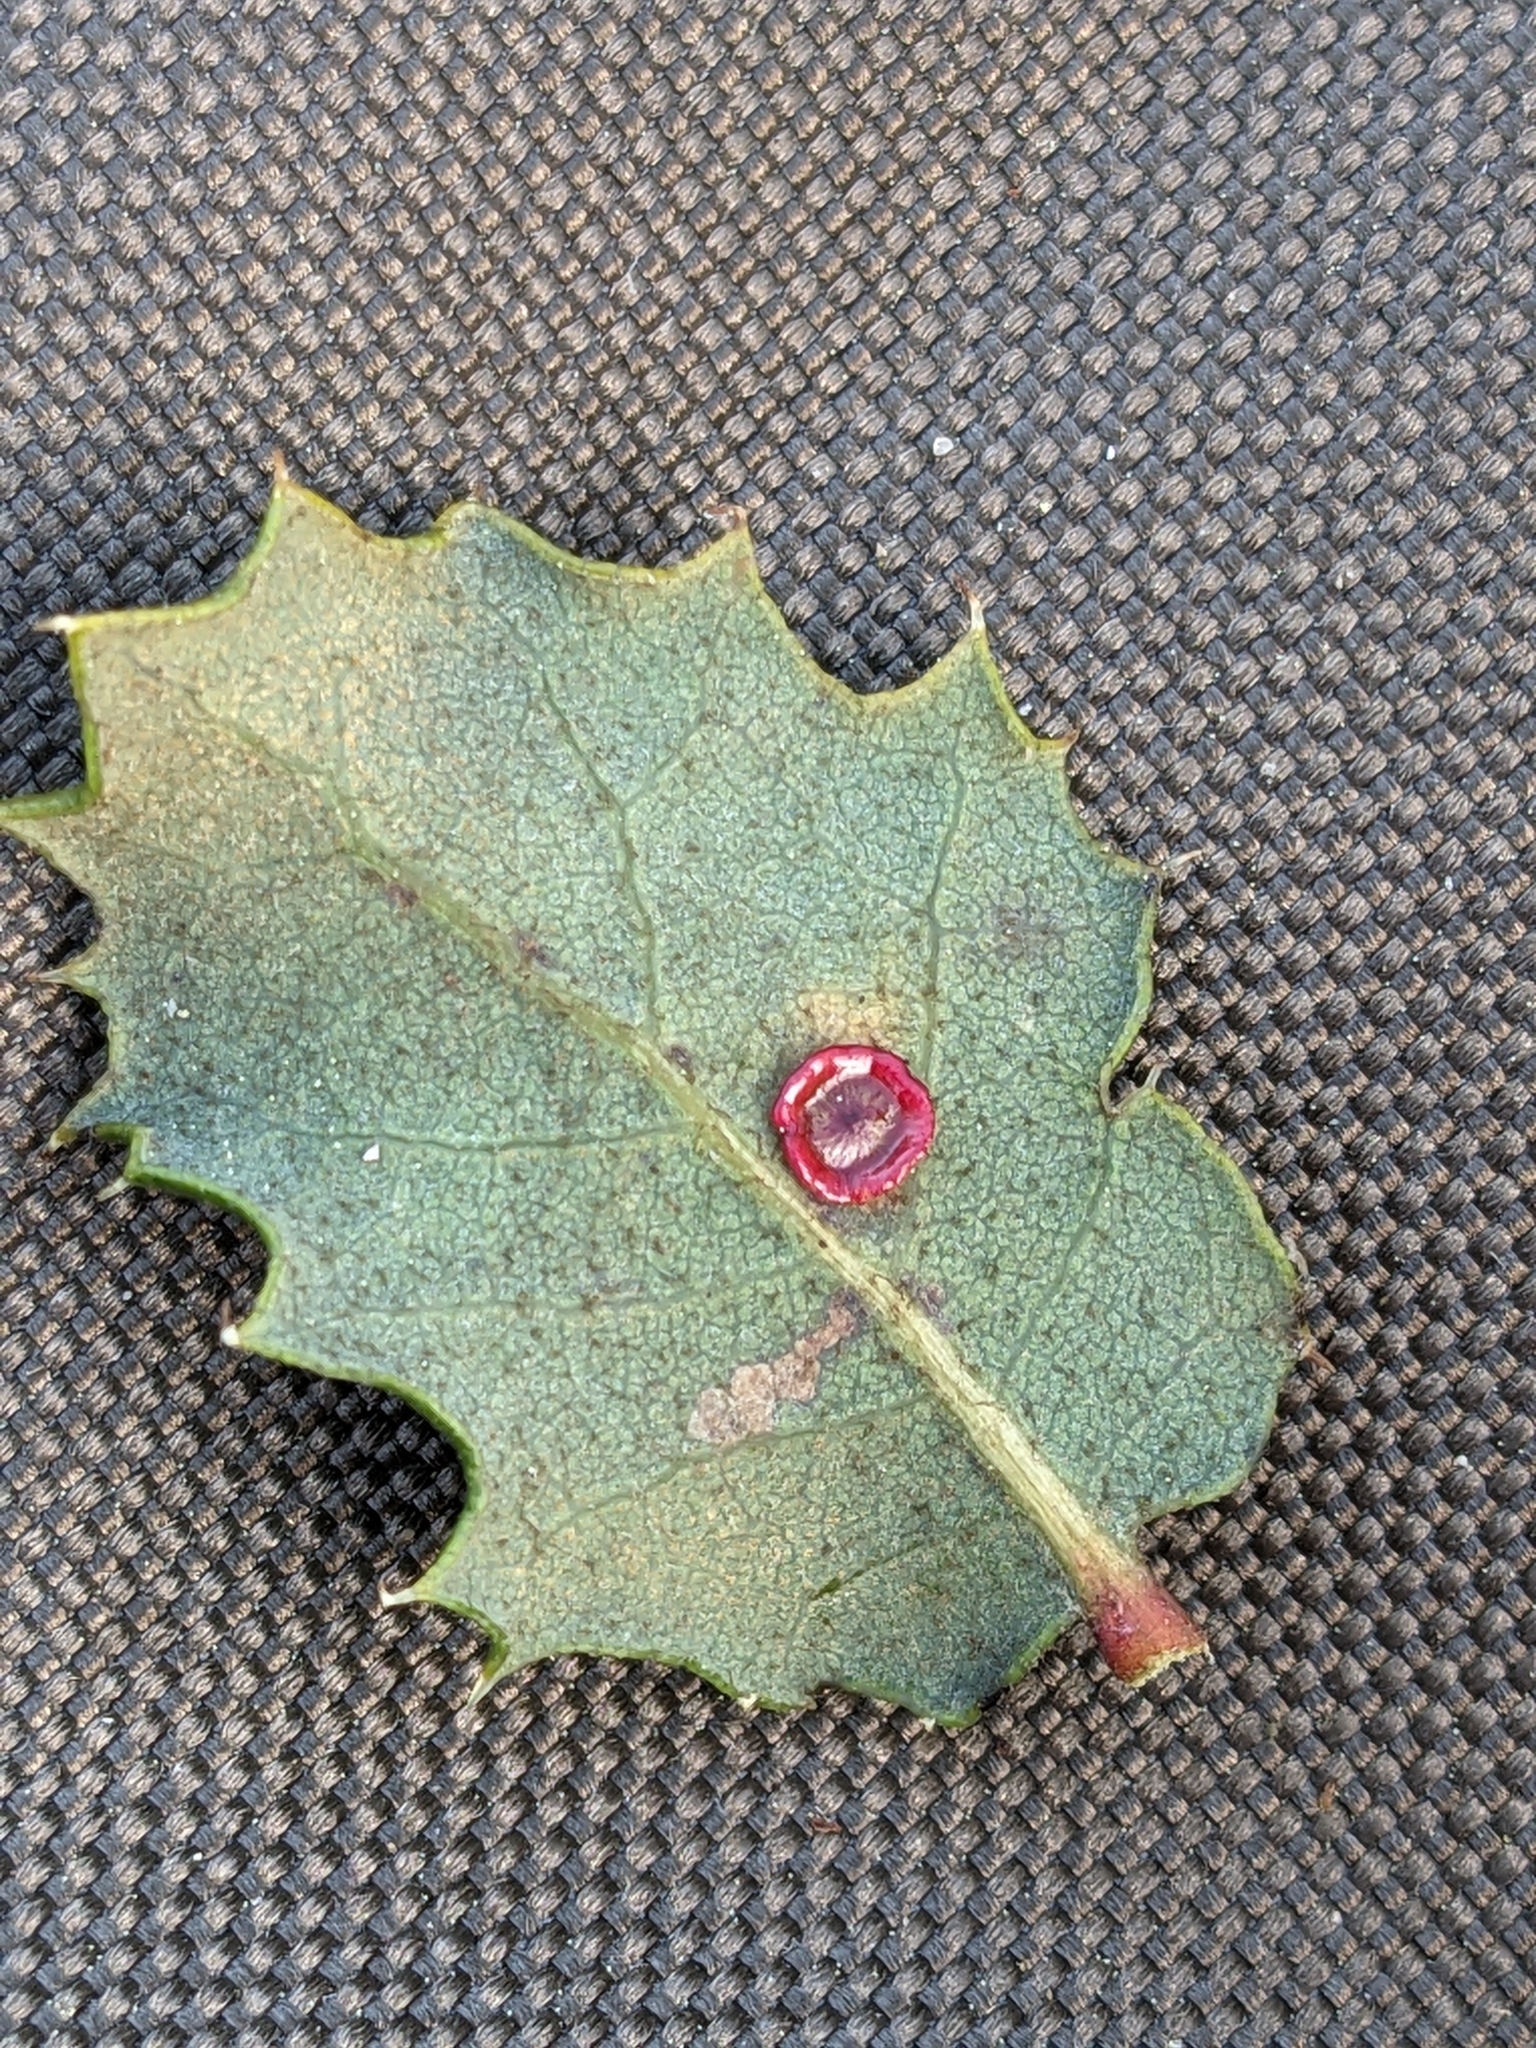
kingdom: Animalia
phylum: Arthropoda
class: Insecta
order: Hymenoptera
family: Cynipidae
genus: Andricus
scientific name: Andricus
